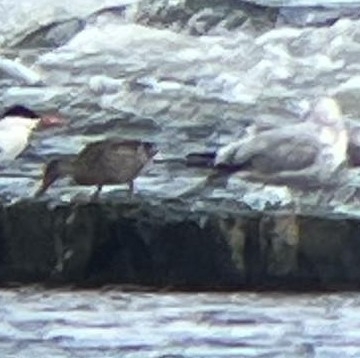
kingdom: Animalia
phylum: Chordata
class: Aves
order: Anseriformes
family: Anatidae
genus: Anas
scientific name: Anas platyrhynchos
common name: Mallard
